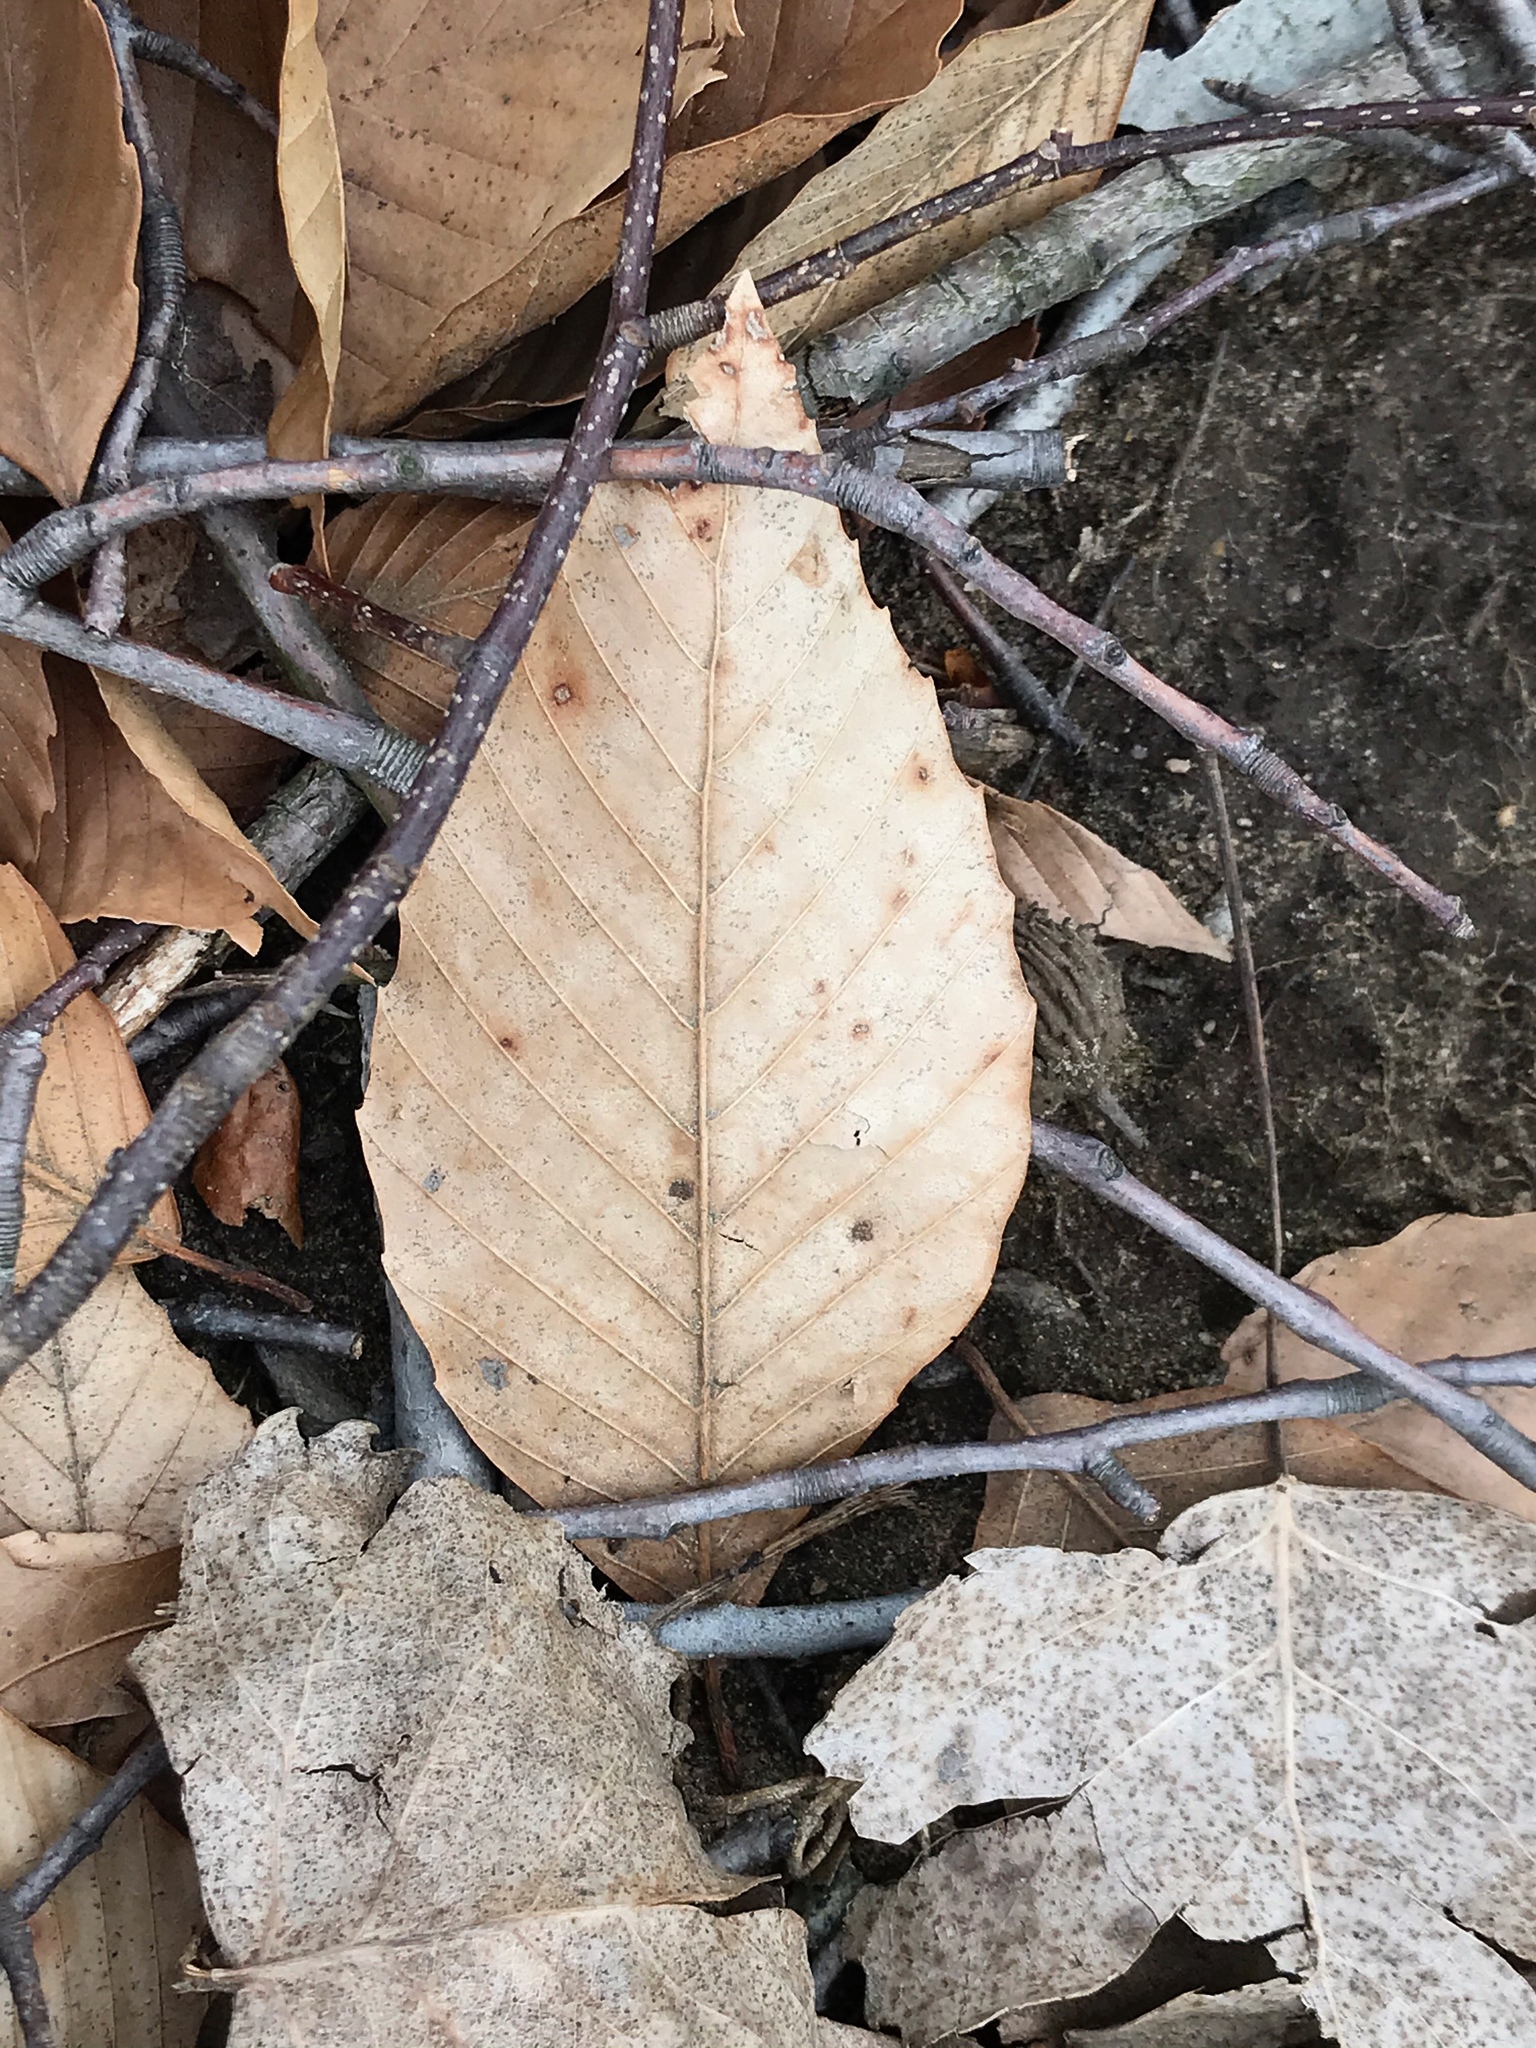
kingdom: Plantae
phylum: Tracheophyta
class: Magnoliopsida
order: Fagales
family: Fagaceae
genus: Fagus
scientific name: Fagus grandifolia
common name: American beech
